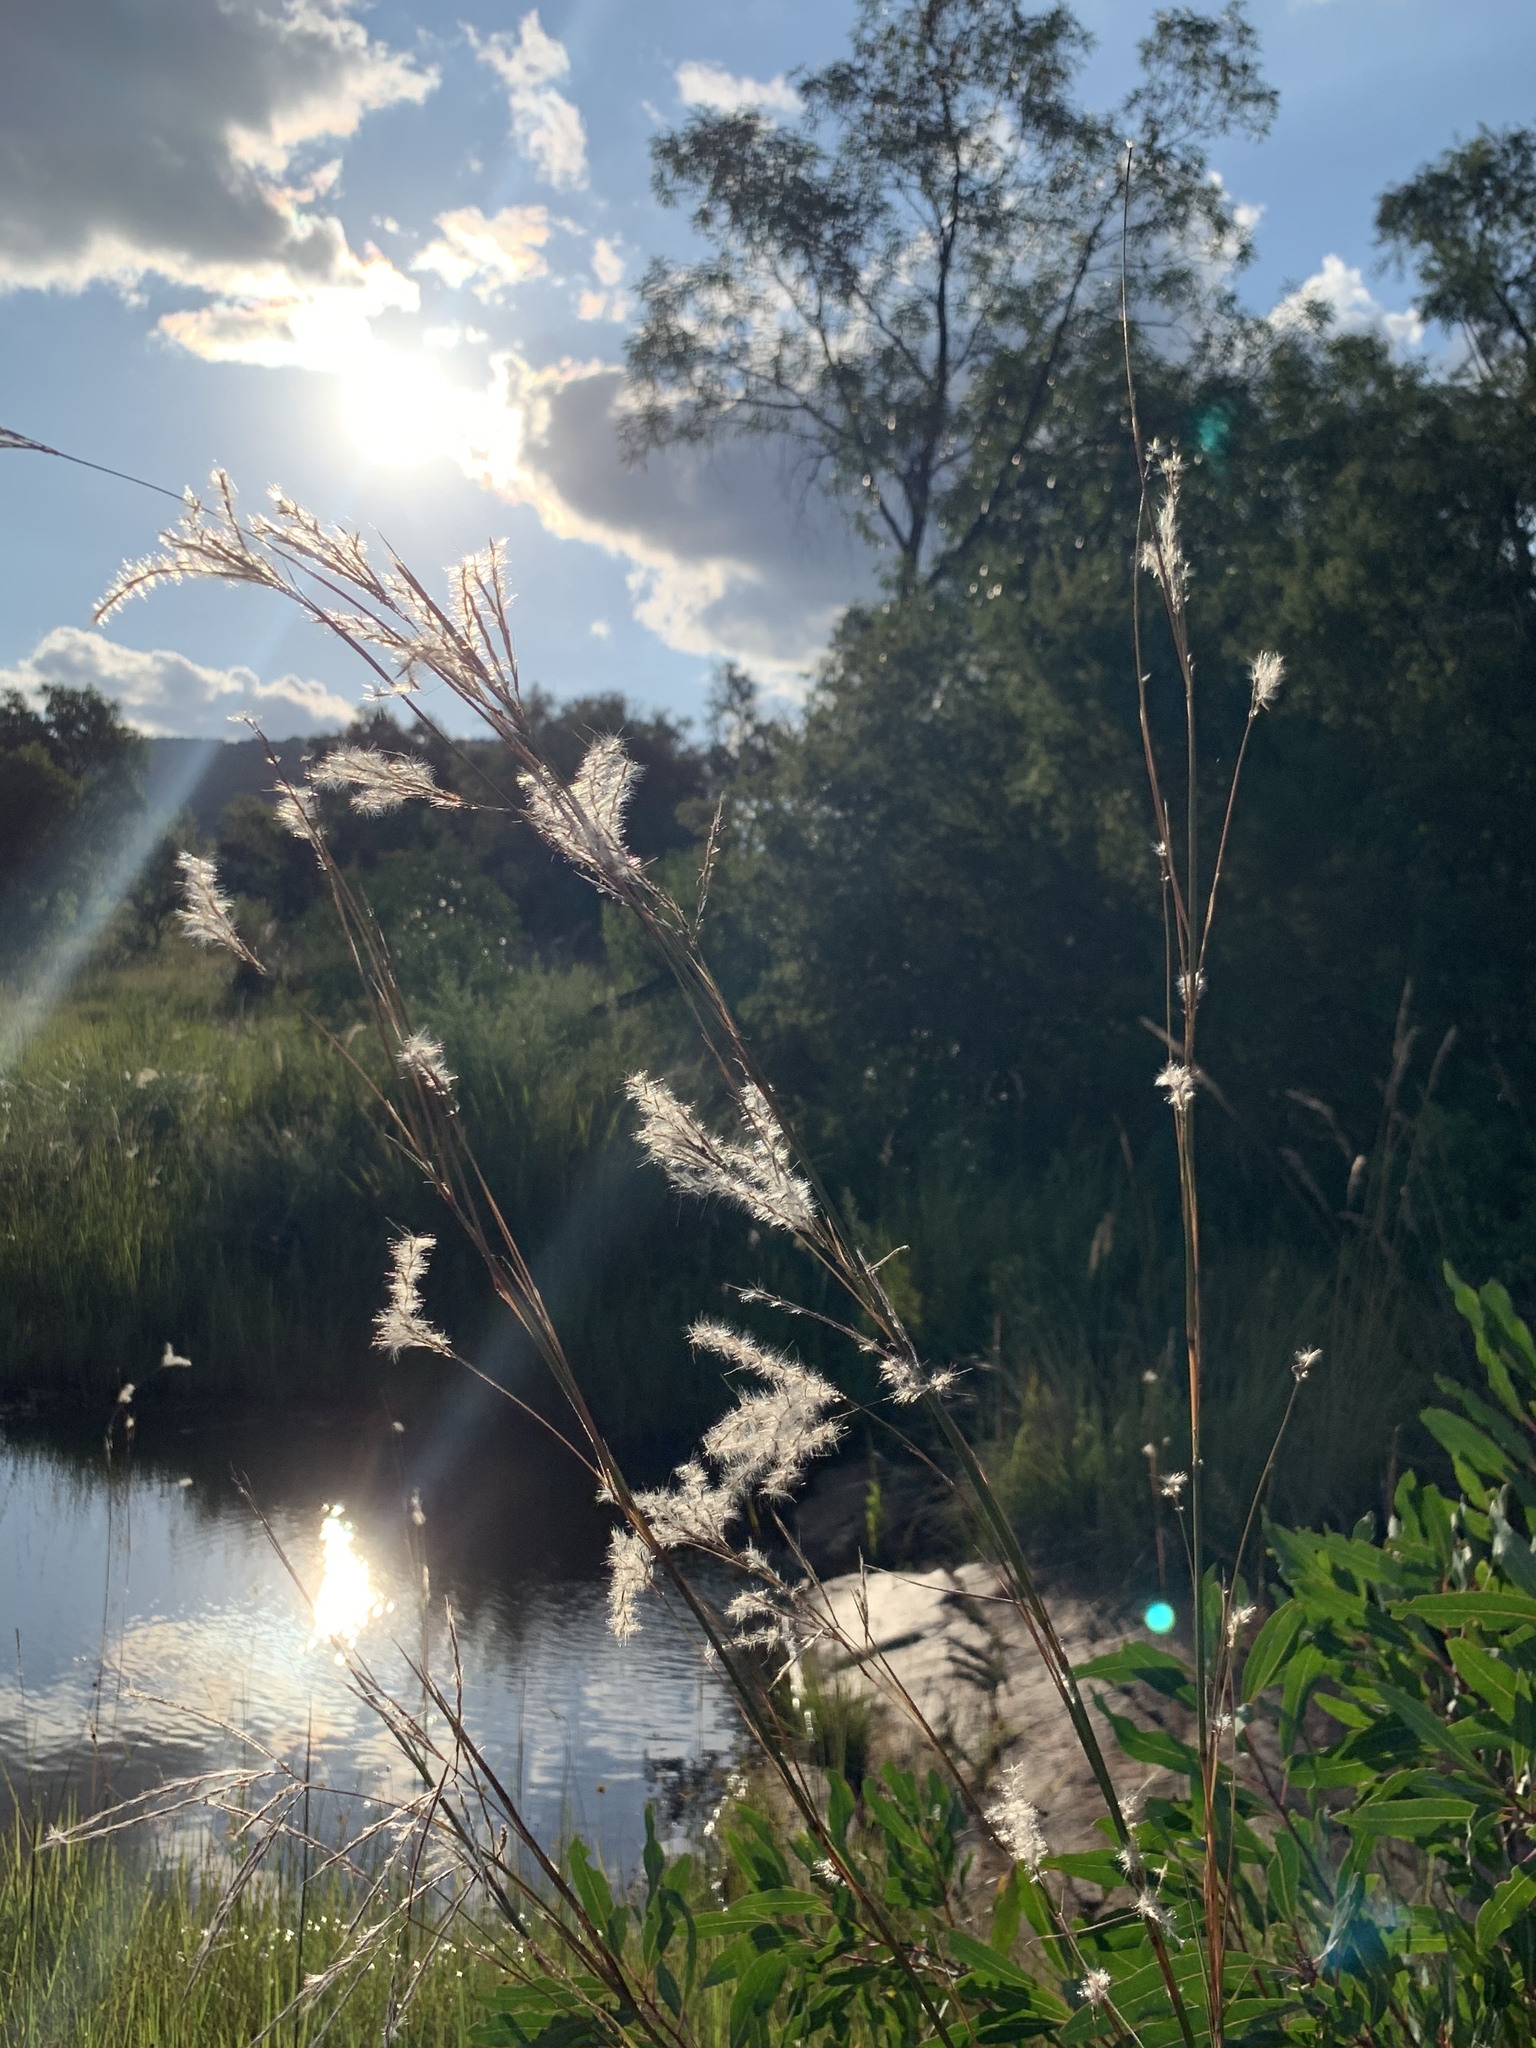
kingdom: Plantae
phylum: Tracheophyta
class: Liliopsida
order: Poales
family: Poaceae
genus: Andropogon
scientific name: Andropogon eucomus
